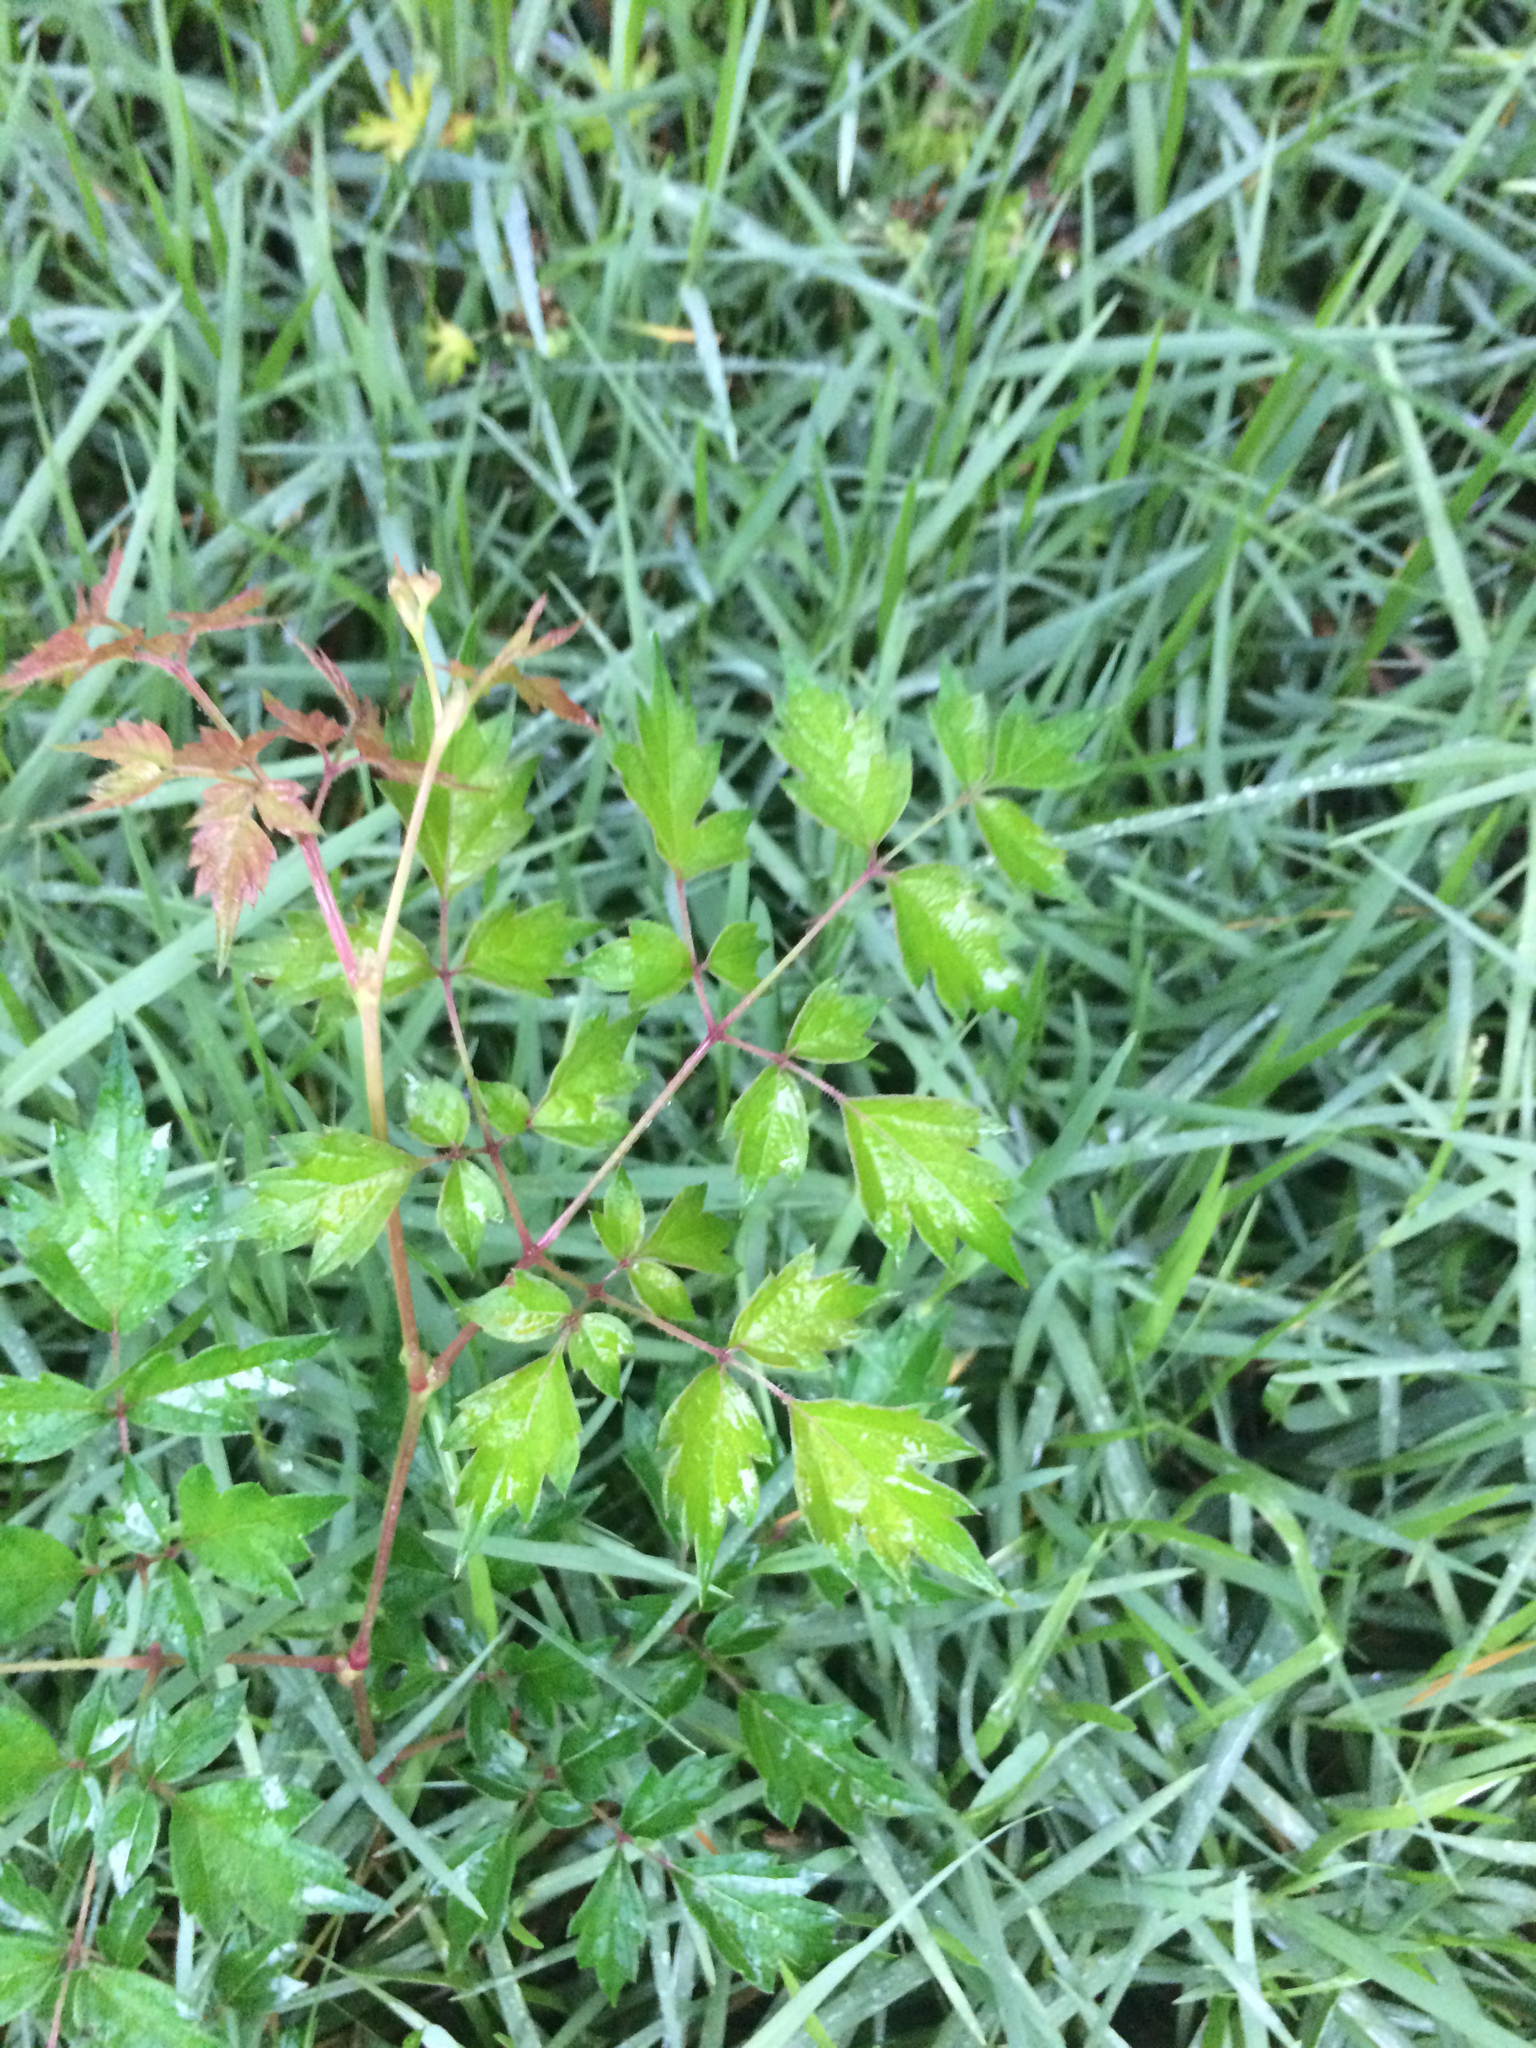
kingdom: Plantae
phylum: Tracheophyta
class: Magnoliopsida
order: Vitales
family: Vitaceae
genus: Nekemias
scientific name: Nekemias arborea
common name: Peppervine
